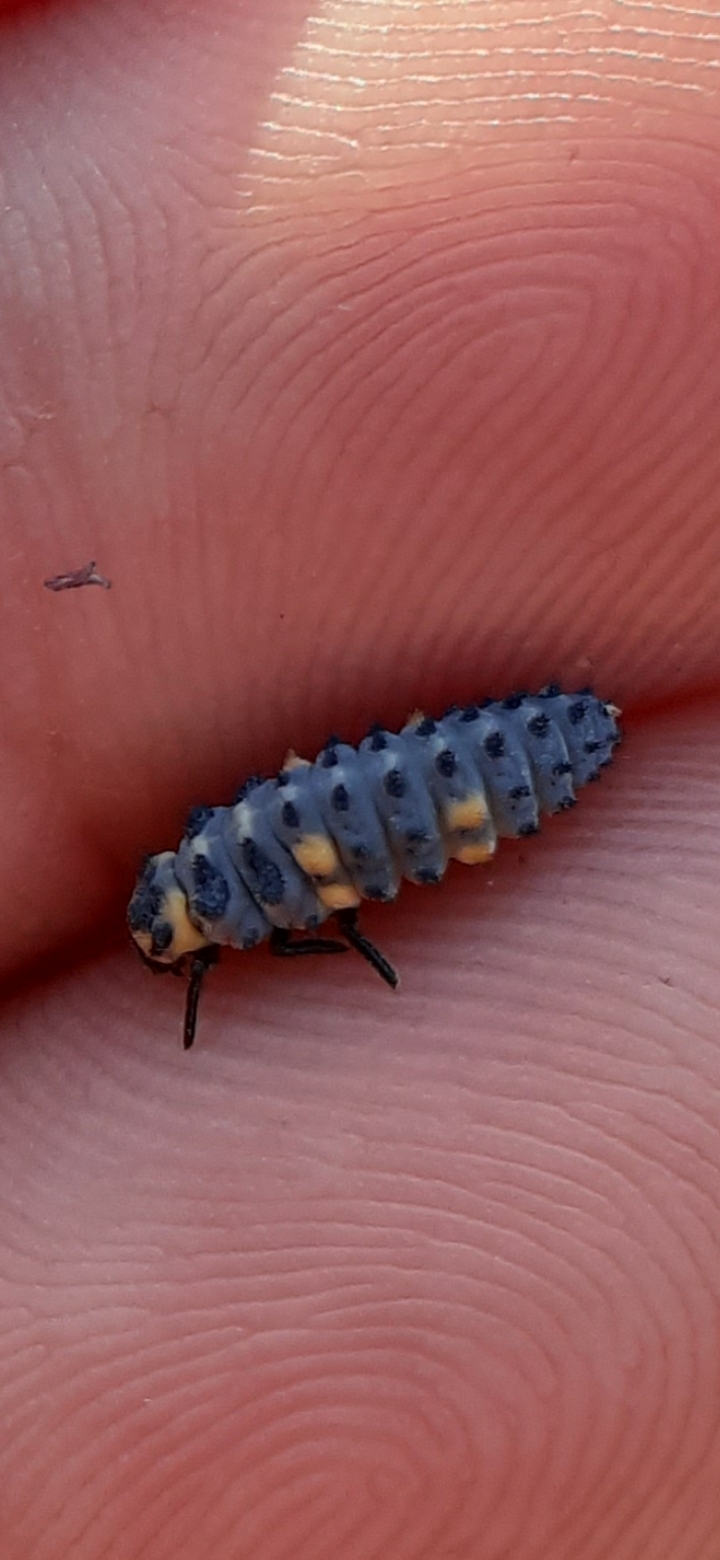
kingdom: Animalia
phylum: Arthropoda
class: Insecta
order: Coleoptera
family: Coccinellidae
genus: Coccinella
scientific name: Coccinella septempunctata
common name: Sevenspotted lady beetle
